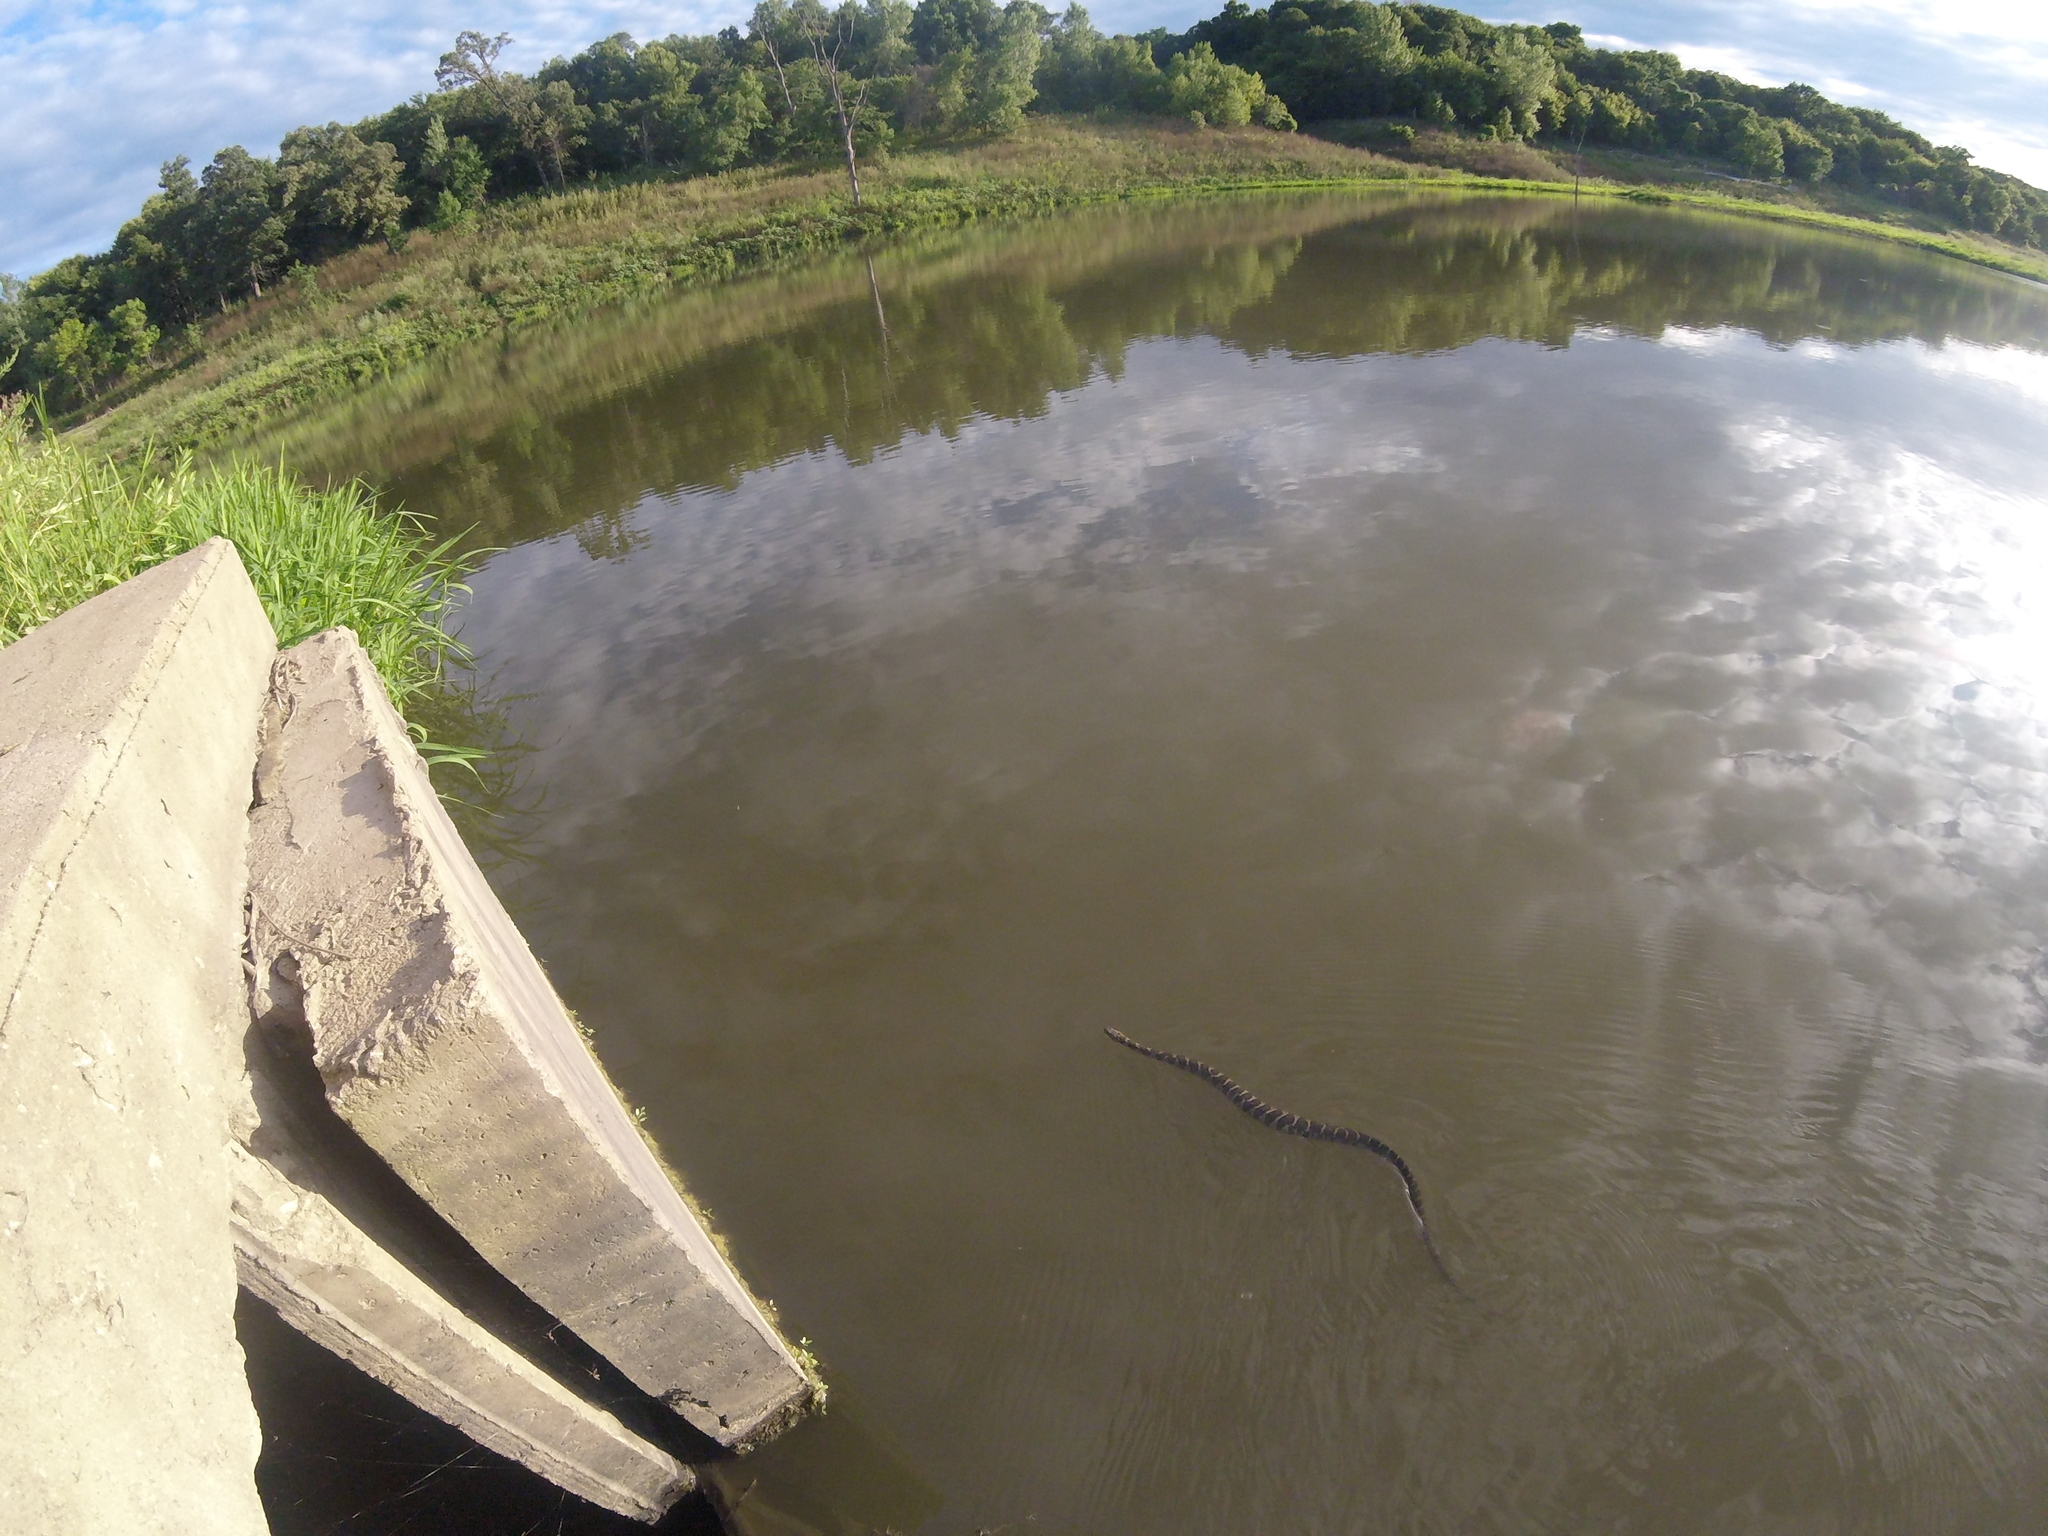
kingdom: Animalia
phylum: Chordata
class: Squamata
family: Colubridae
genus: Nerodia
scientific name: Nerodia sipedon
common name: Northern water snake
